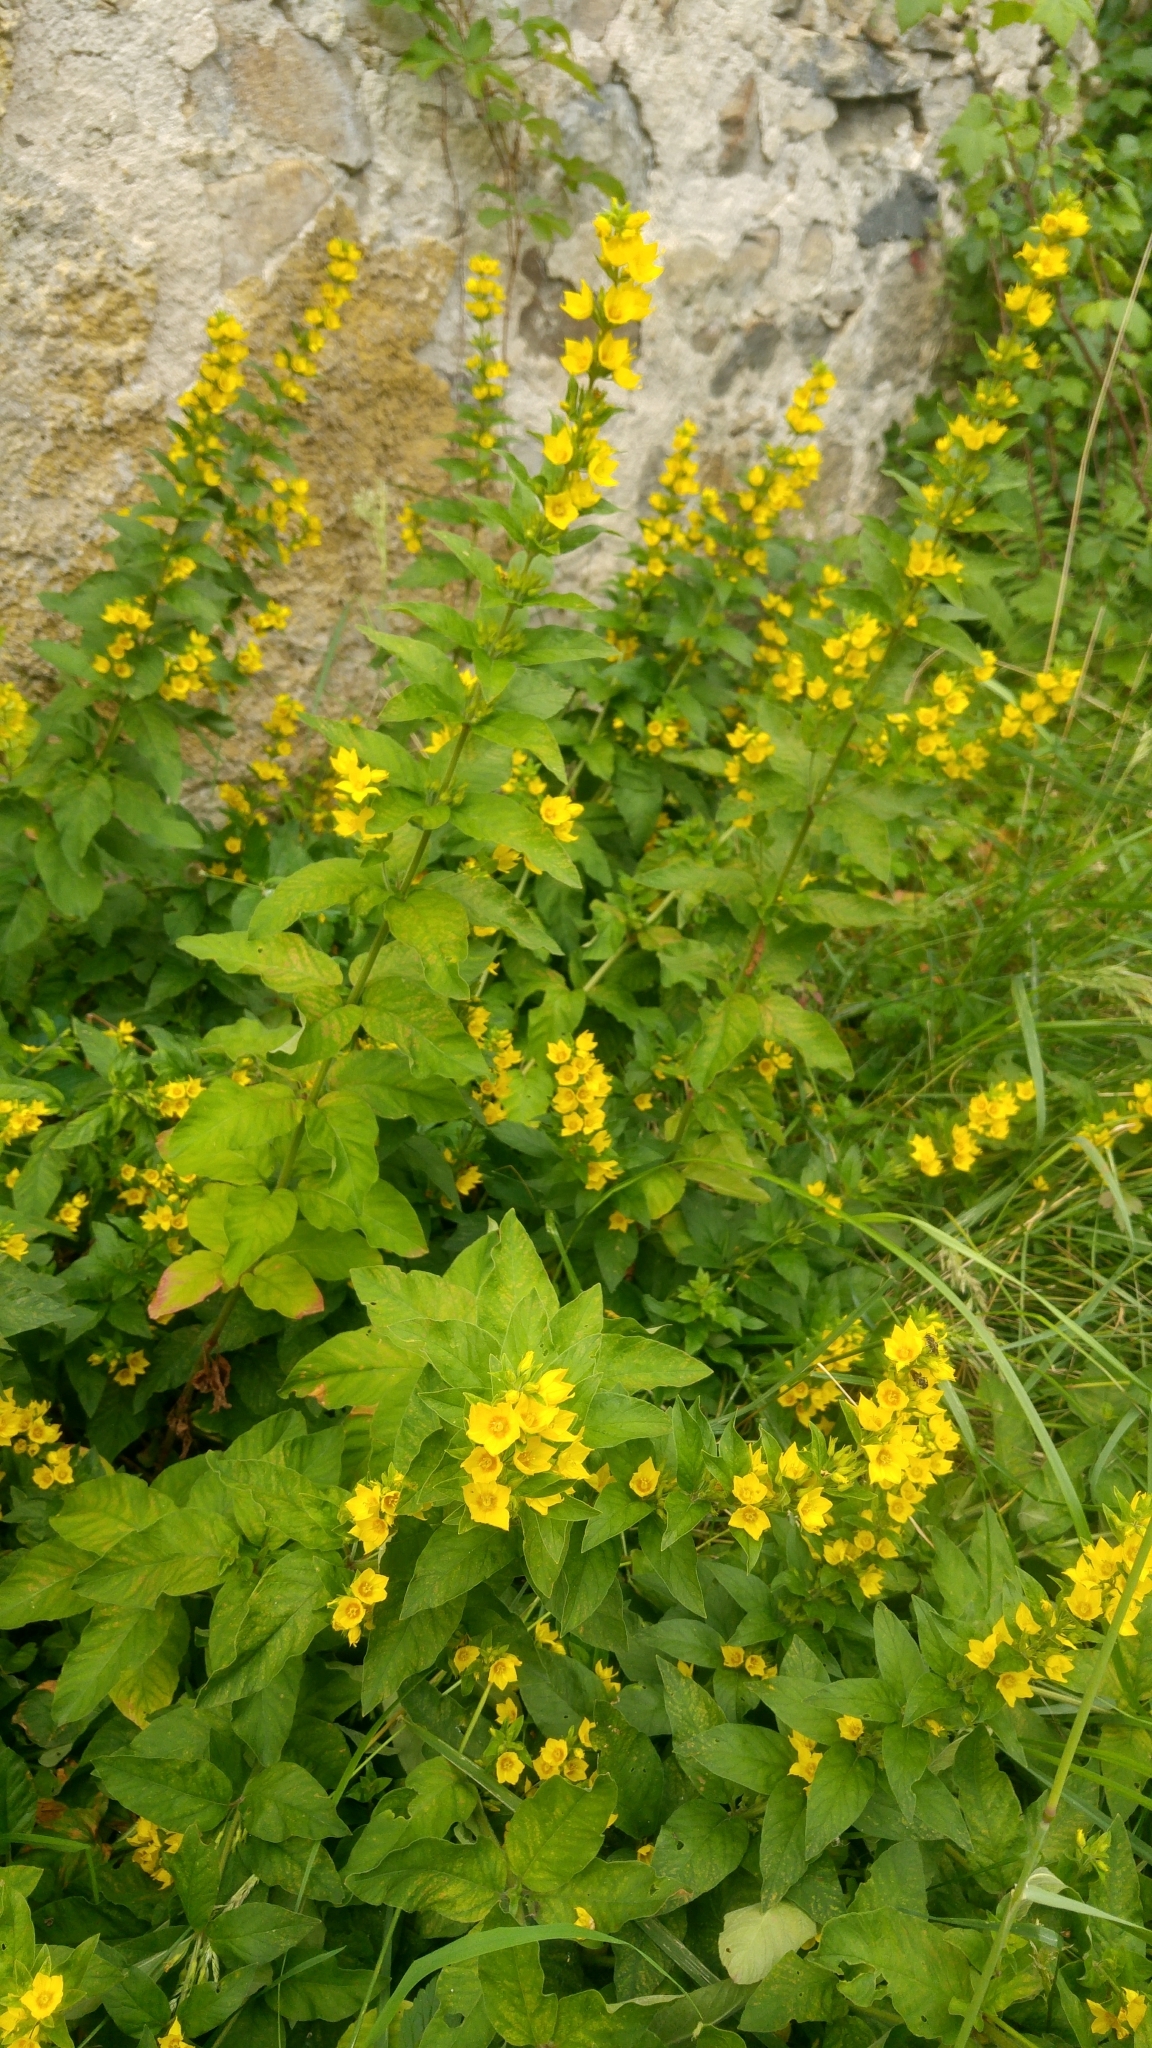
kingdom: Plantae
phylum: Tracheophyta
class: Magnoliopsida
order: Ericales
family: Primulaceae
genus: Lysimachia
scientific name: Lysimachia punctata
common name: Dotted loosestrife
